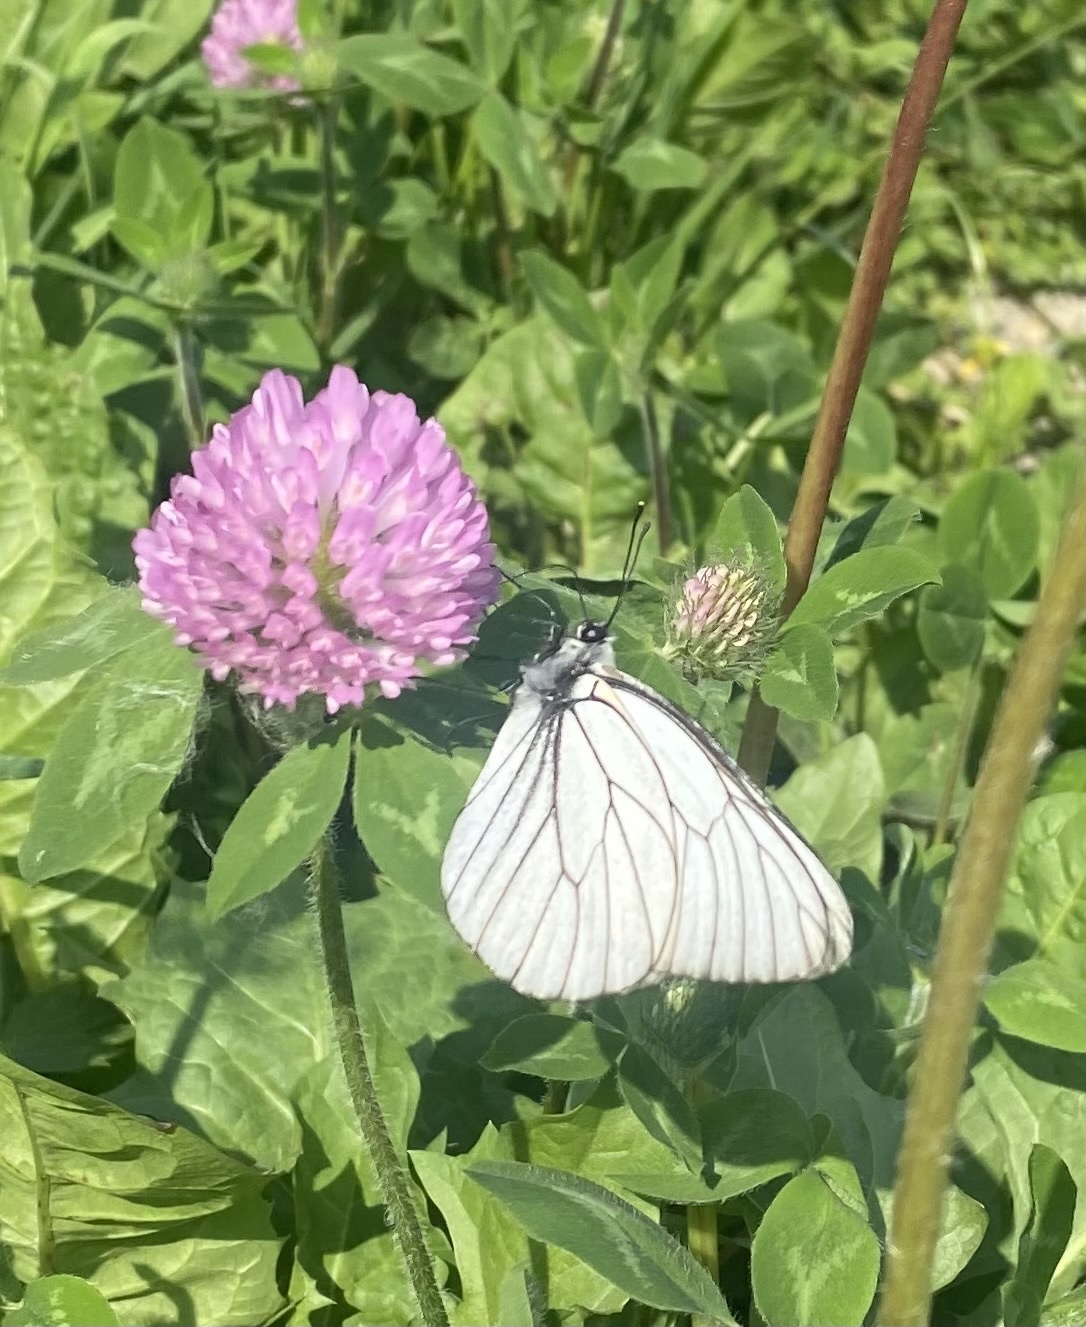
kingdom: Animalia
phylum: Arthropoda
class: Insecta
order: Lepidoptera
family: Pieridae
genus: Aporia
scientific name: Aporia crataegi
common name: Black-veined white
